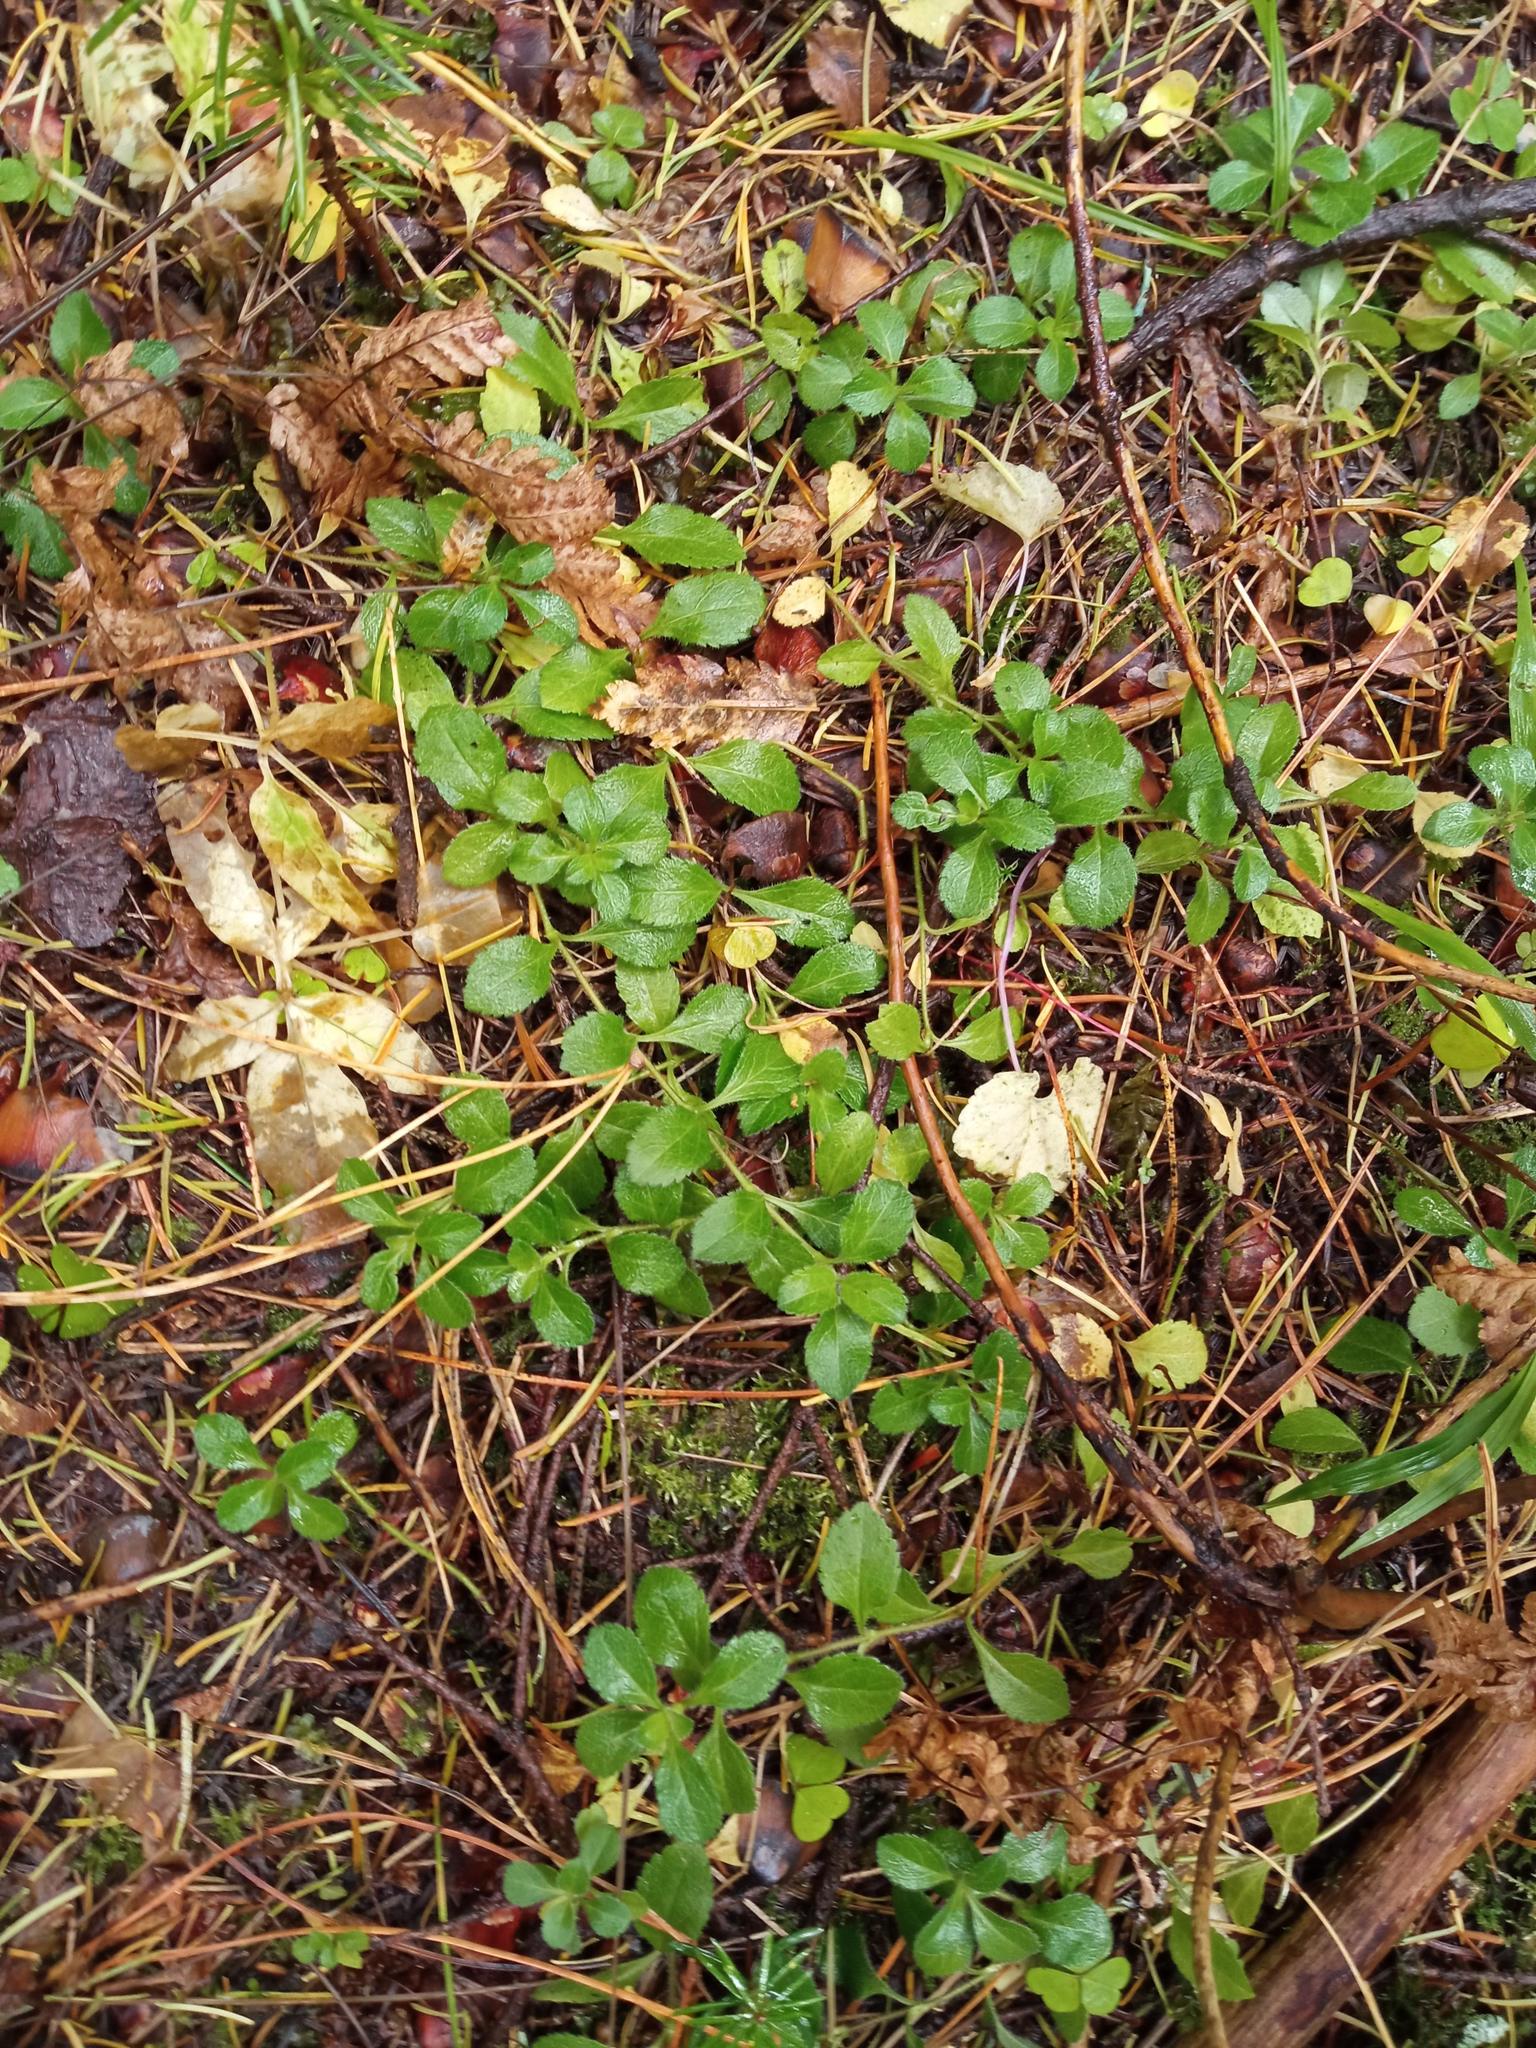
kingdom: Plantae
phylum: Tracheophyta
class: Magnoliopsida
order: Lamiales
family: Plantaginaceae
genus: Veronica
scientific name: Veronica officinalis
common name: Common speedwell
